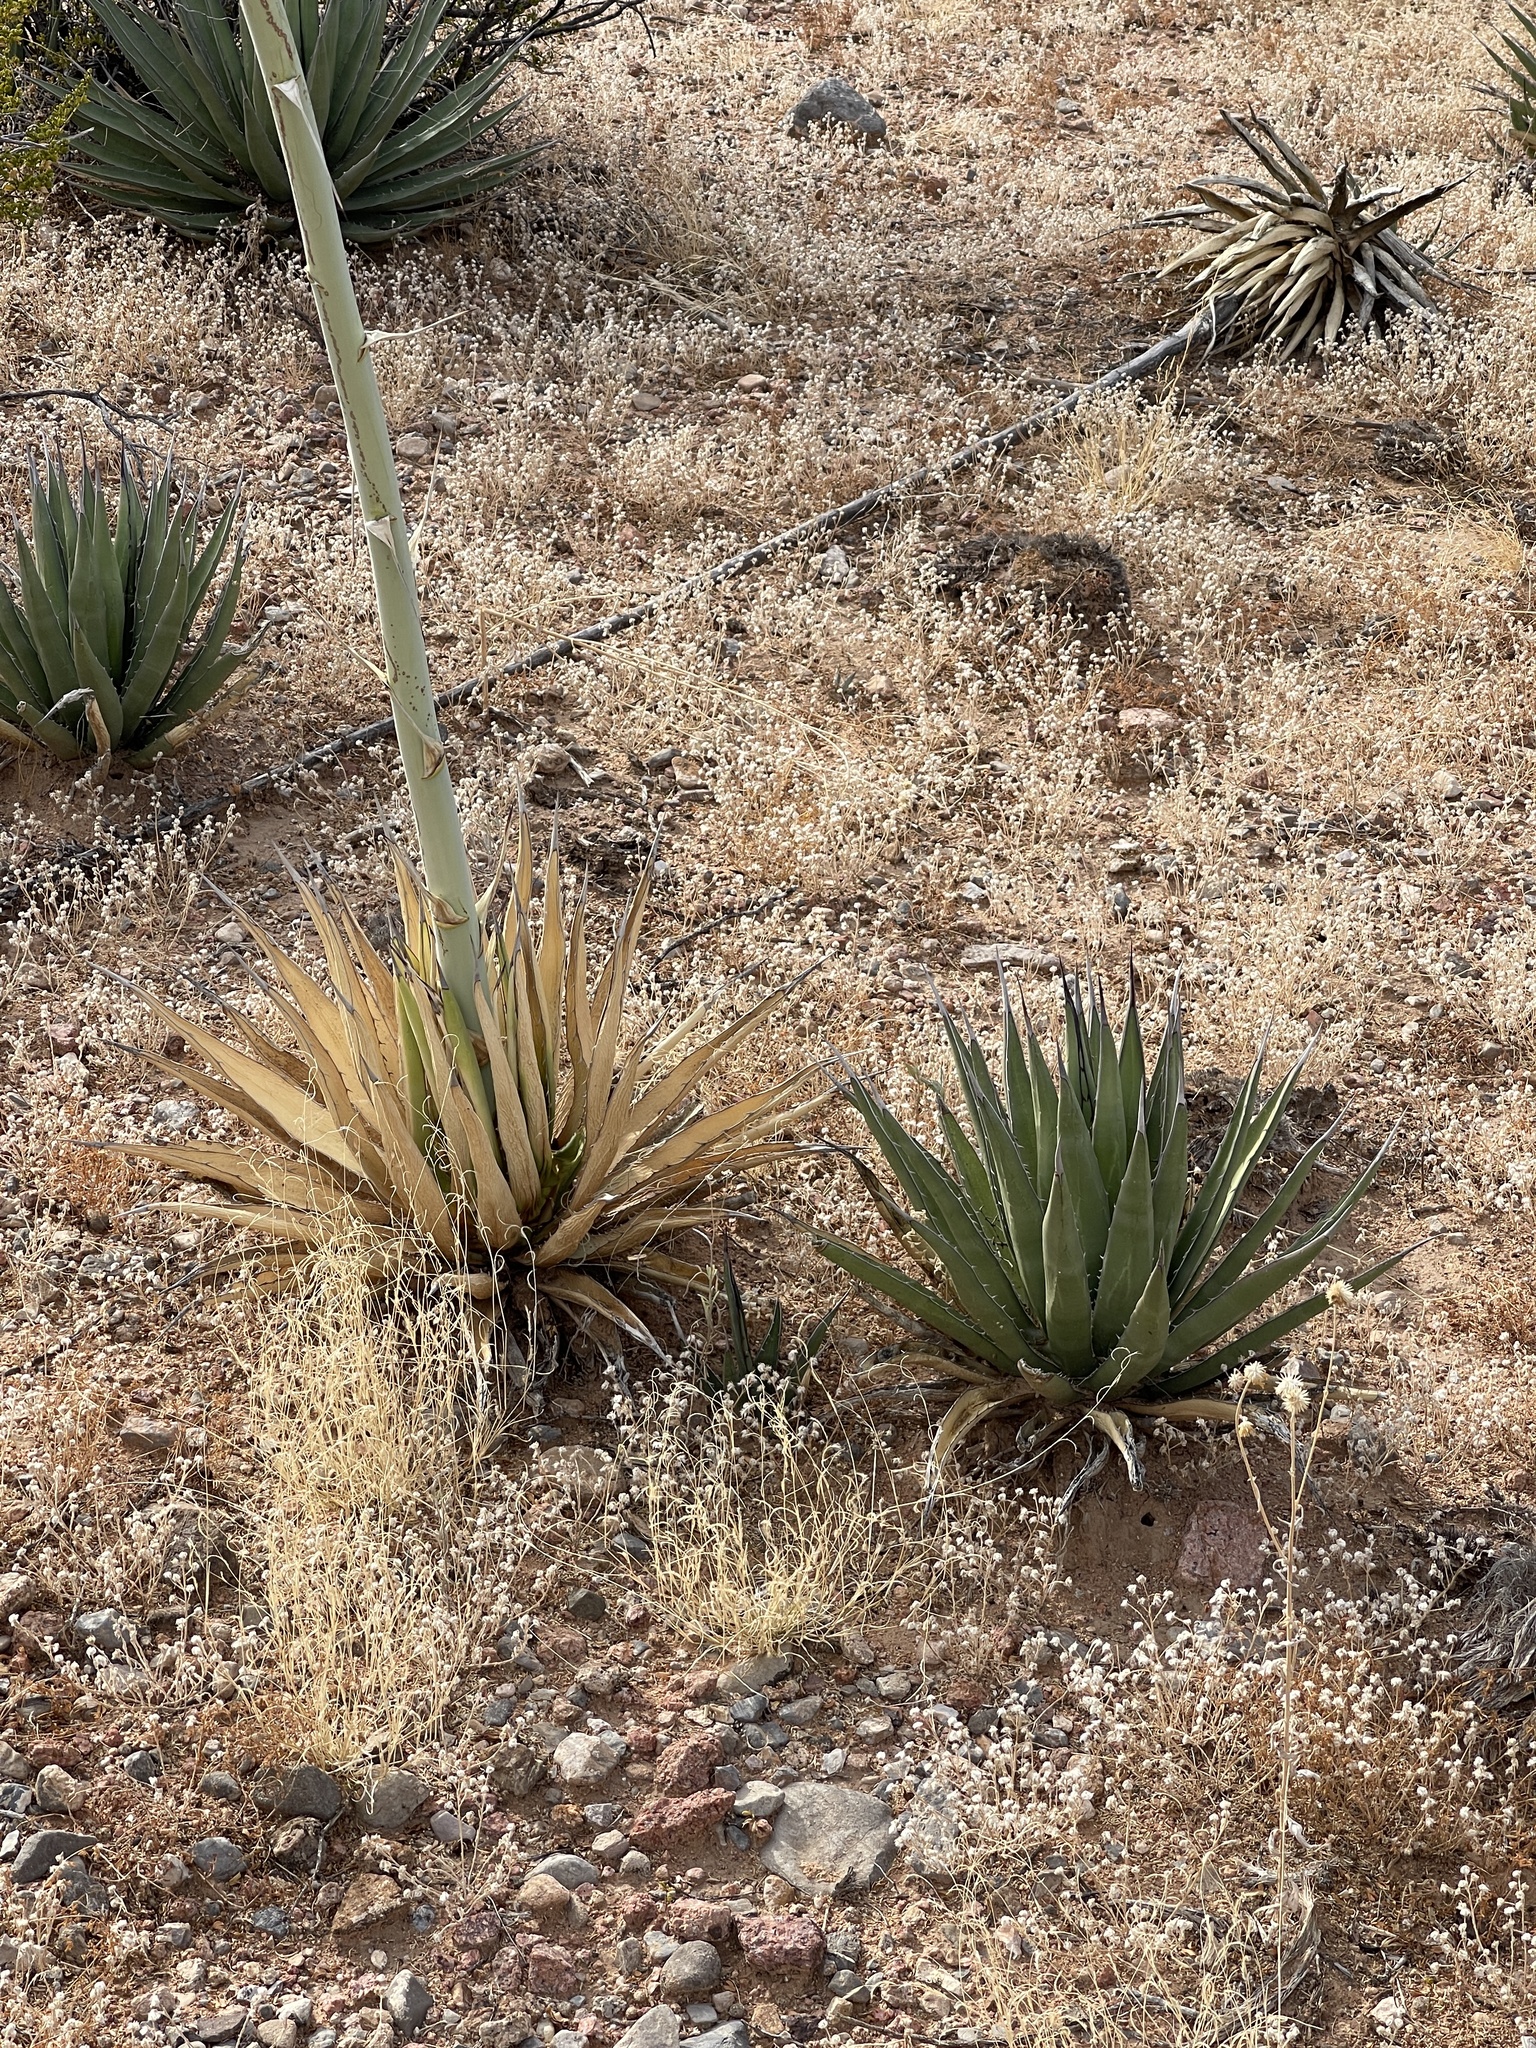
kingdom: Plantae
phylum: Tracheophyta
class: Liliopsida
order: Asparagales
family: Asparagaceae
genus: Agave
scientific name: Agave lechuguilla
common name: Lecheguilla agave
